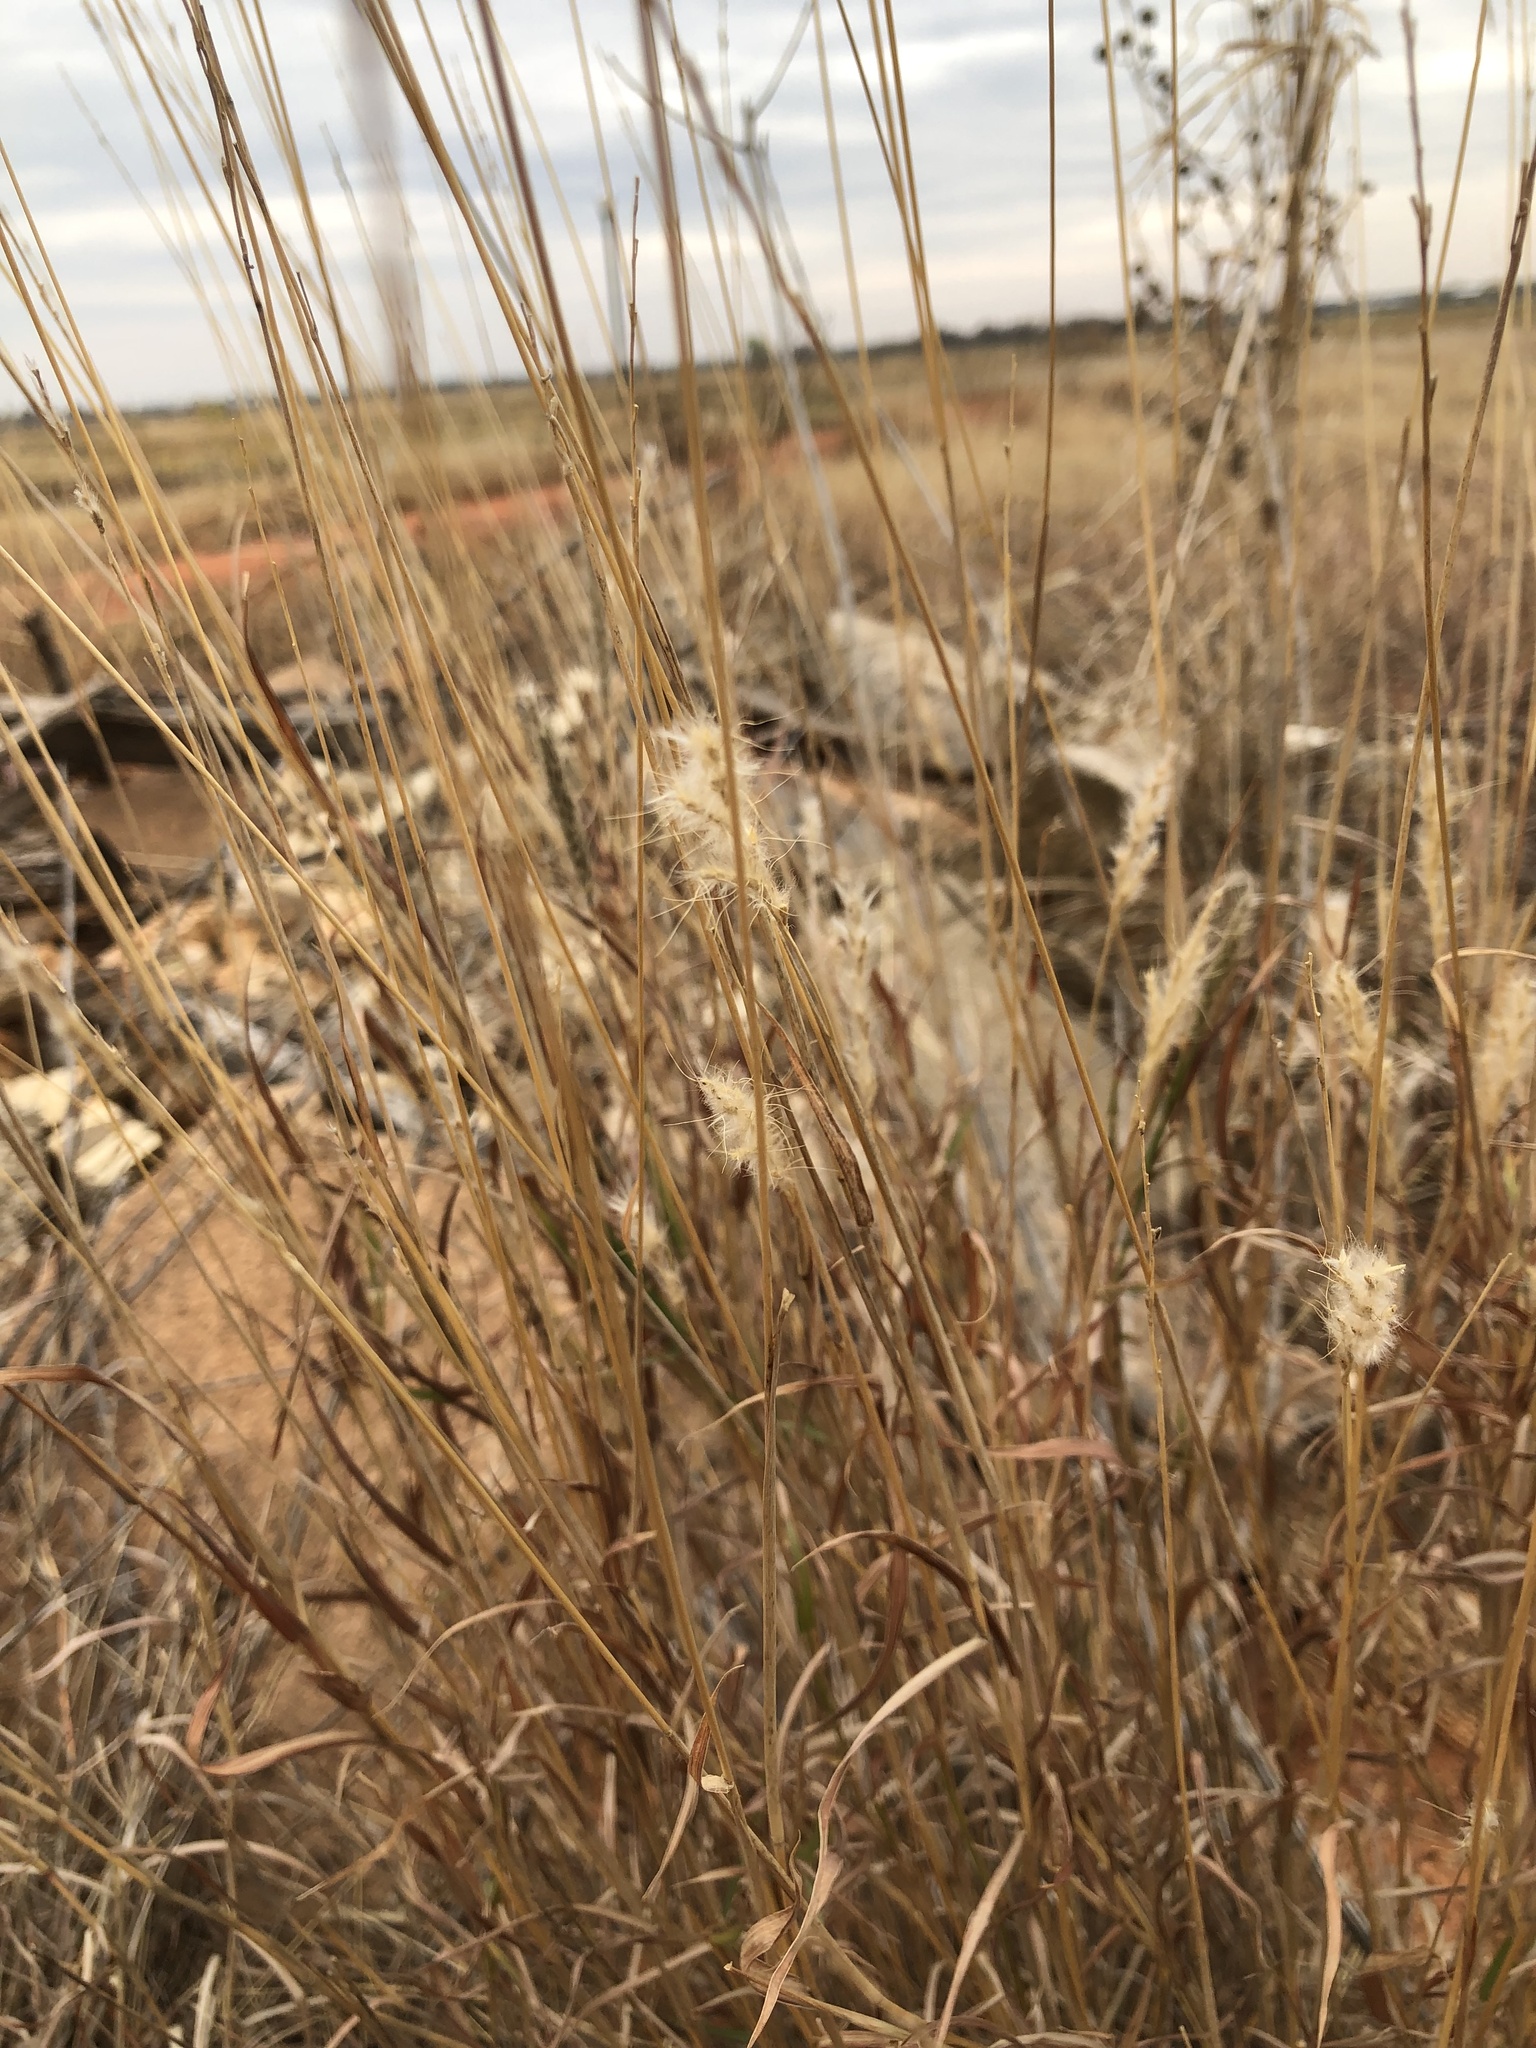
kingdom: Plantae
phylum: Tracheophyta
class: Liliopsida
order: Poales
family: Poaceae
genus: Bothriochloa
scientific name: Bothriochloa torreyana
